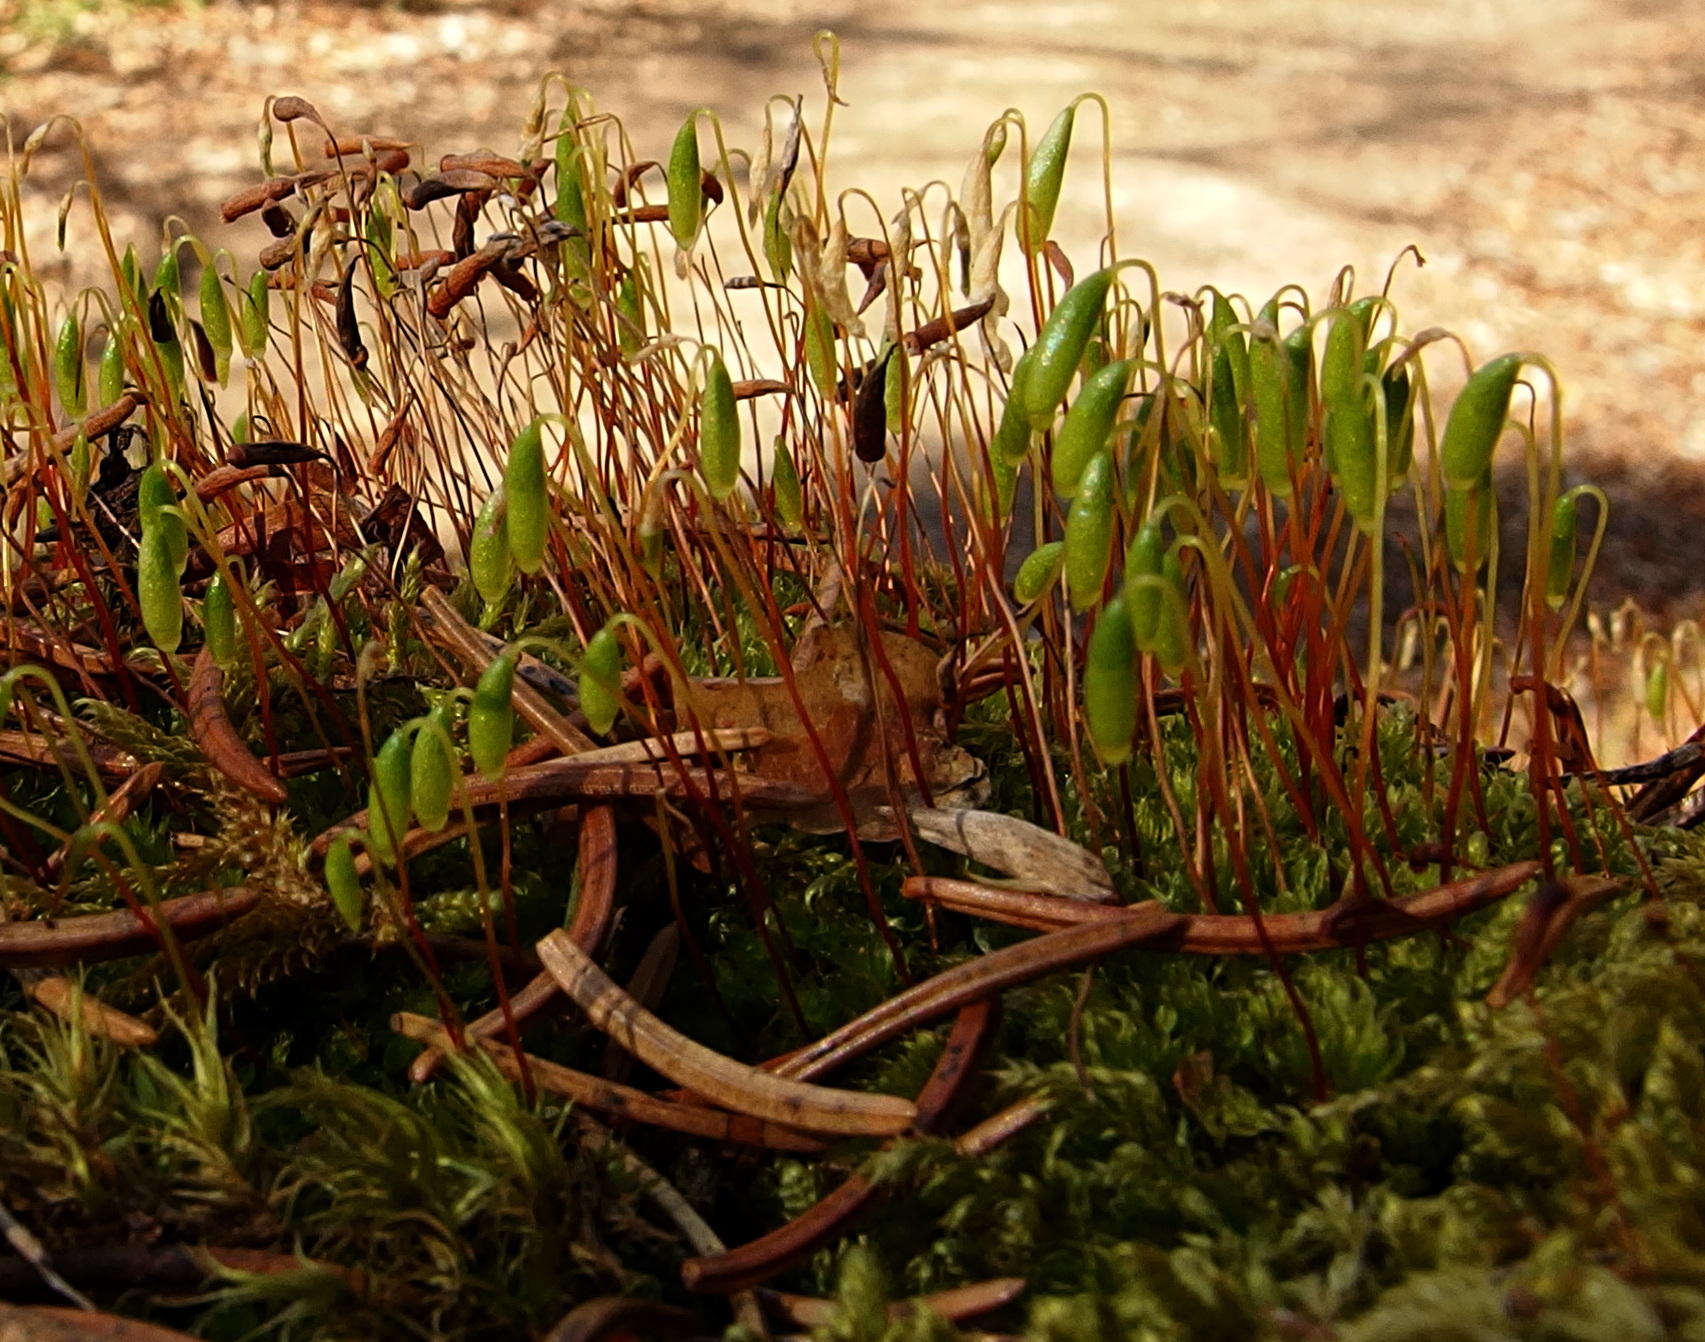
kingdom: Plantae
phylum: Bryophyta
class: Bryopsida
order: Bryales
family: Bryaceae
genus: Rosulabryum
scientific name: Rosulabryum capillare
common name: Capillary thread-moss
